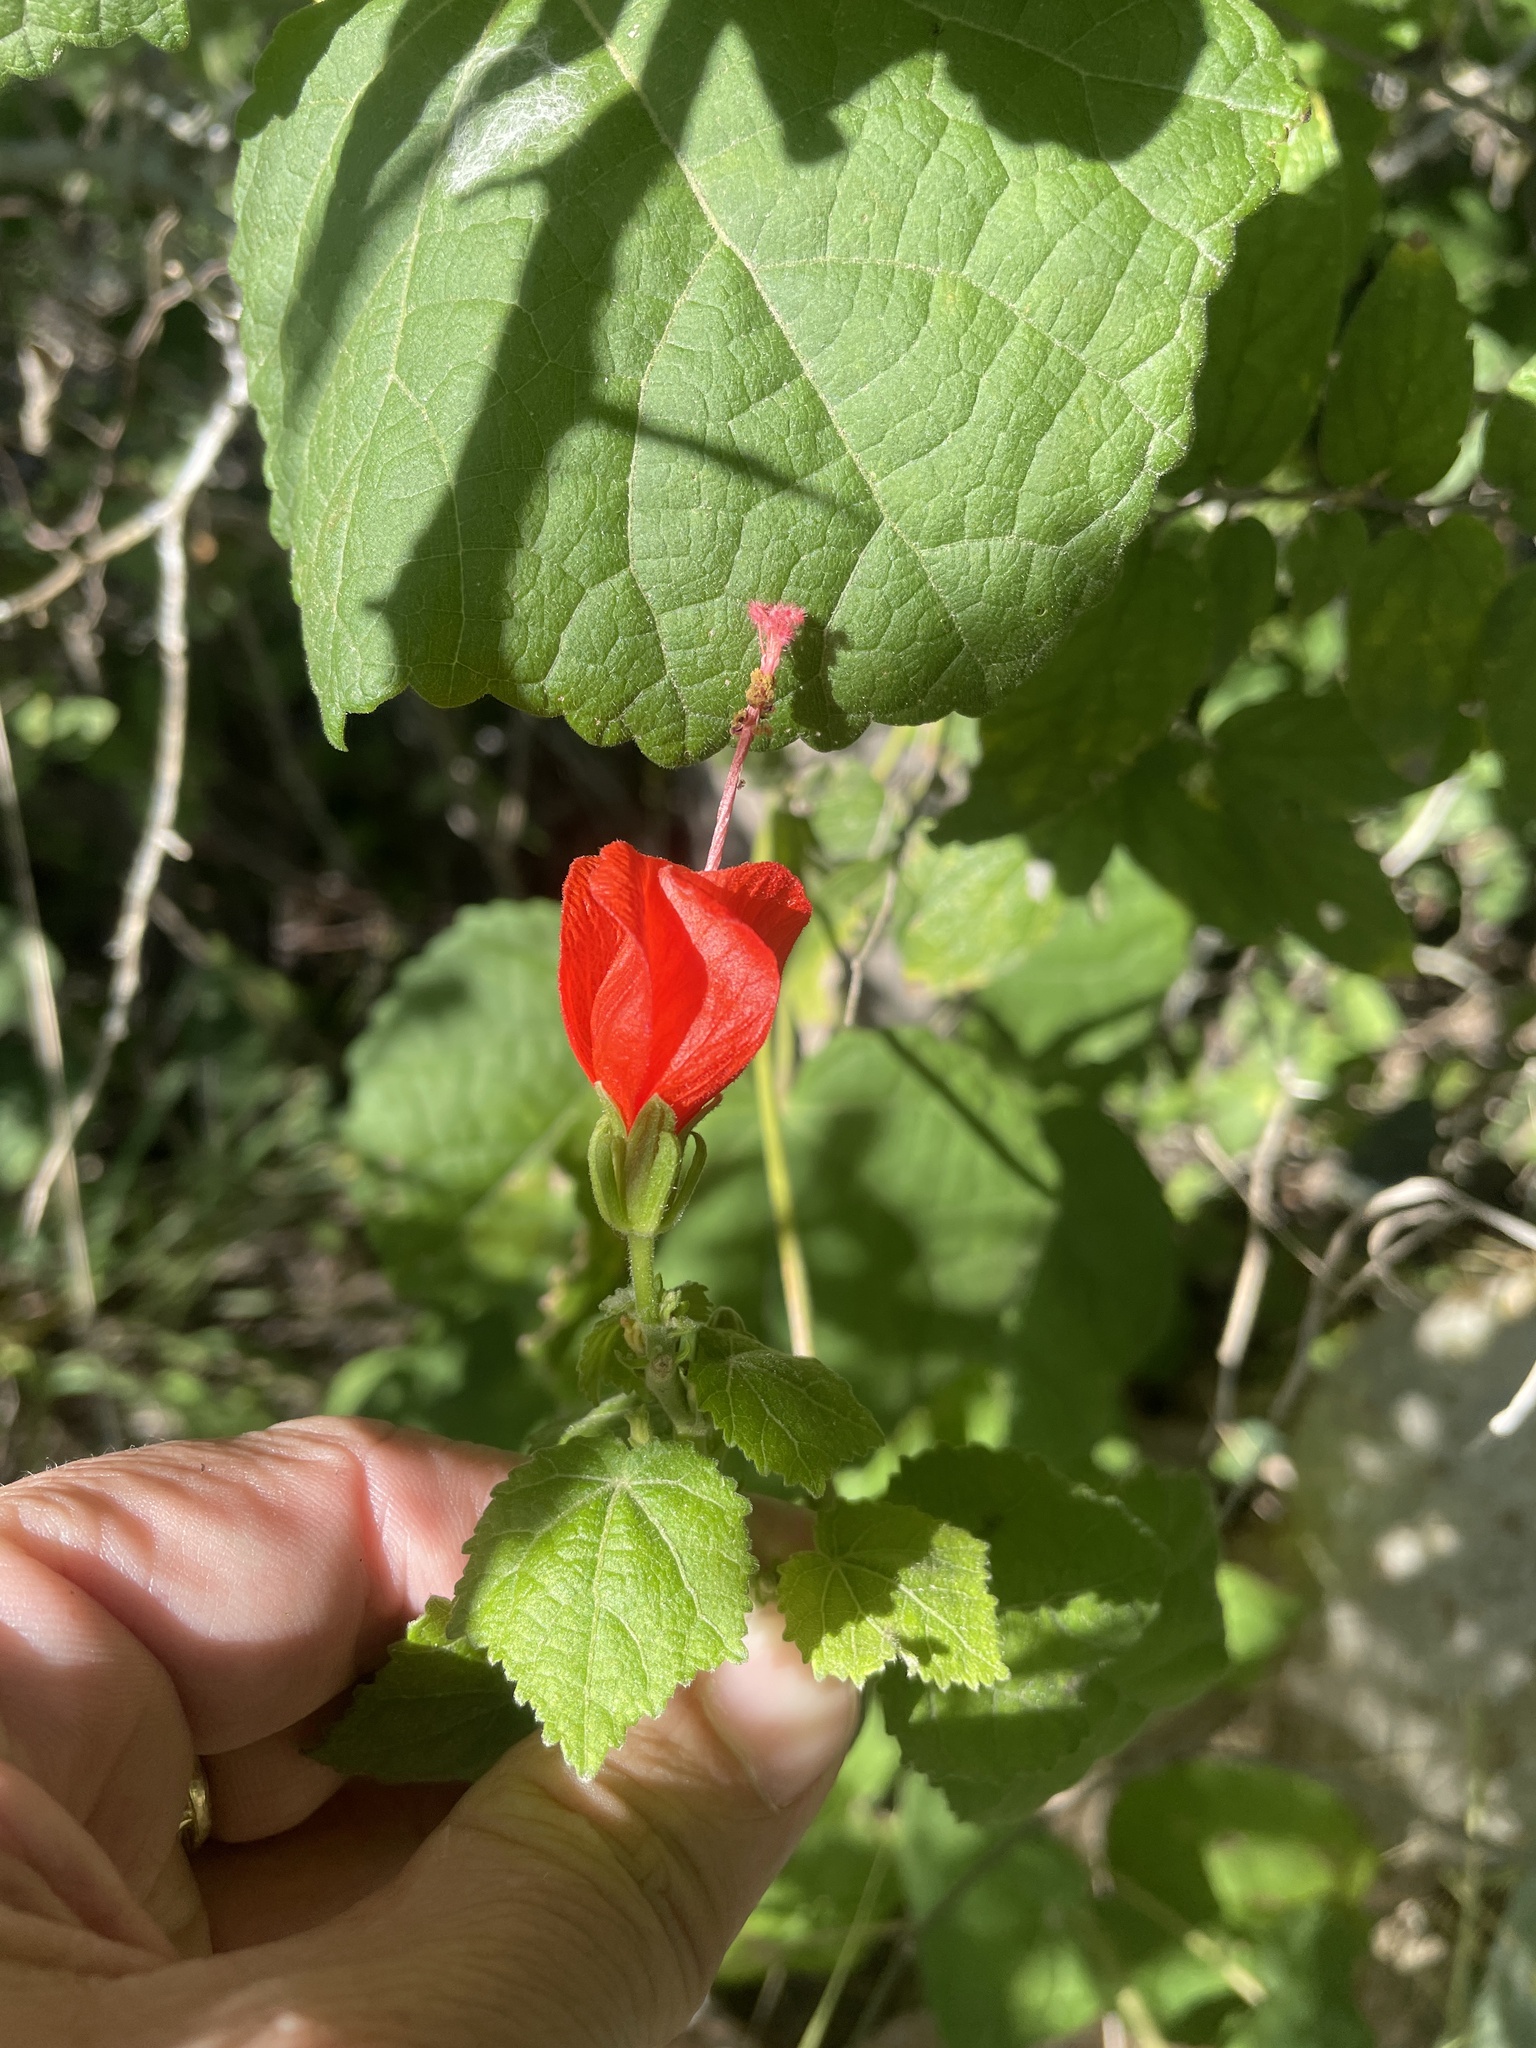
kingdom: Plantae
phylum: Tracheophyta
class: Magnoliopsida
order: Malvales
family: Malvaceae
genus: Malvaviscus
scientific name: Malvaviscus arboreus
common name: Wax mallow
